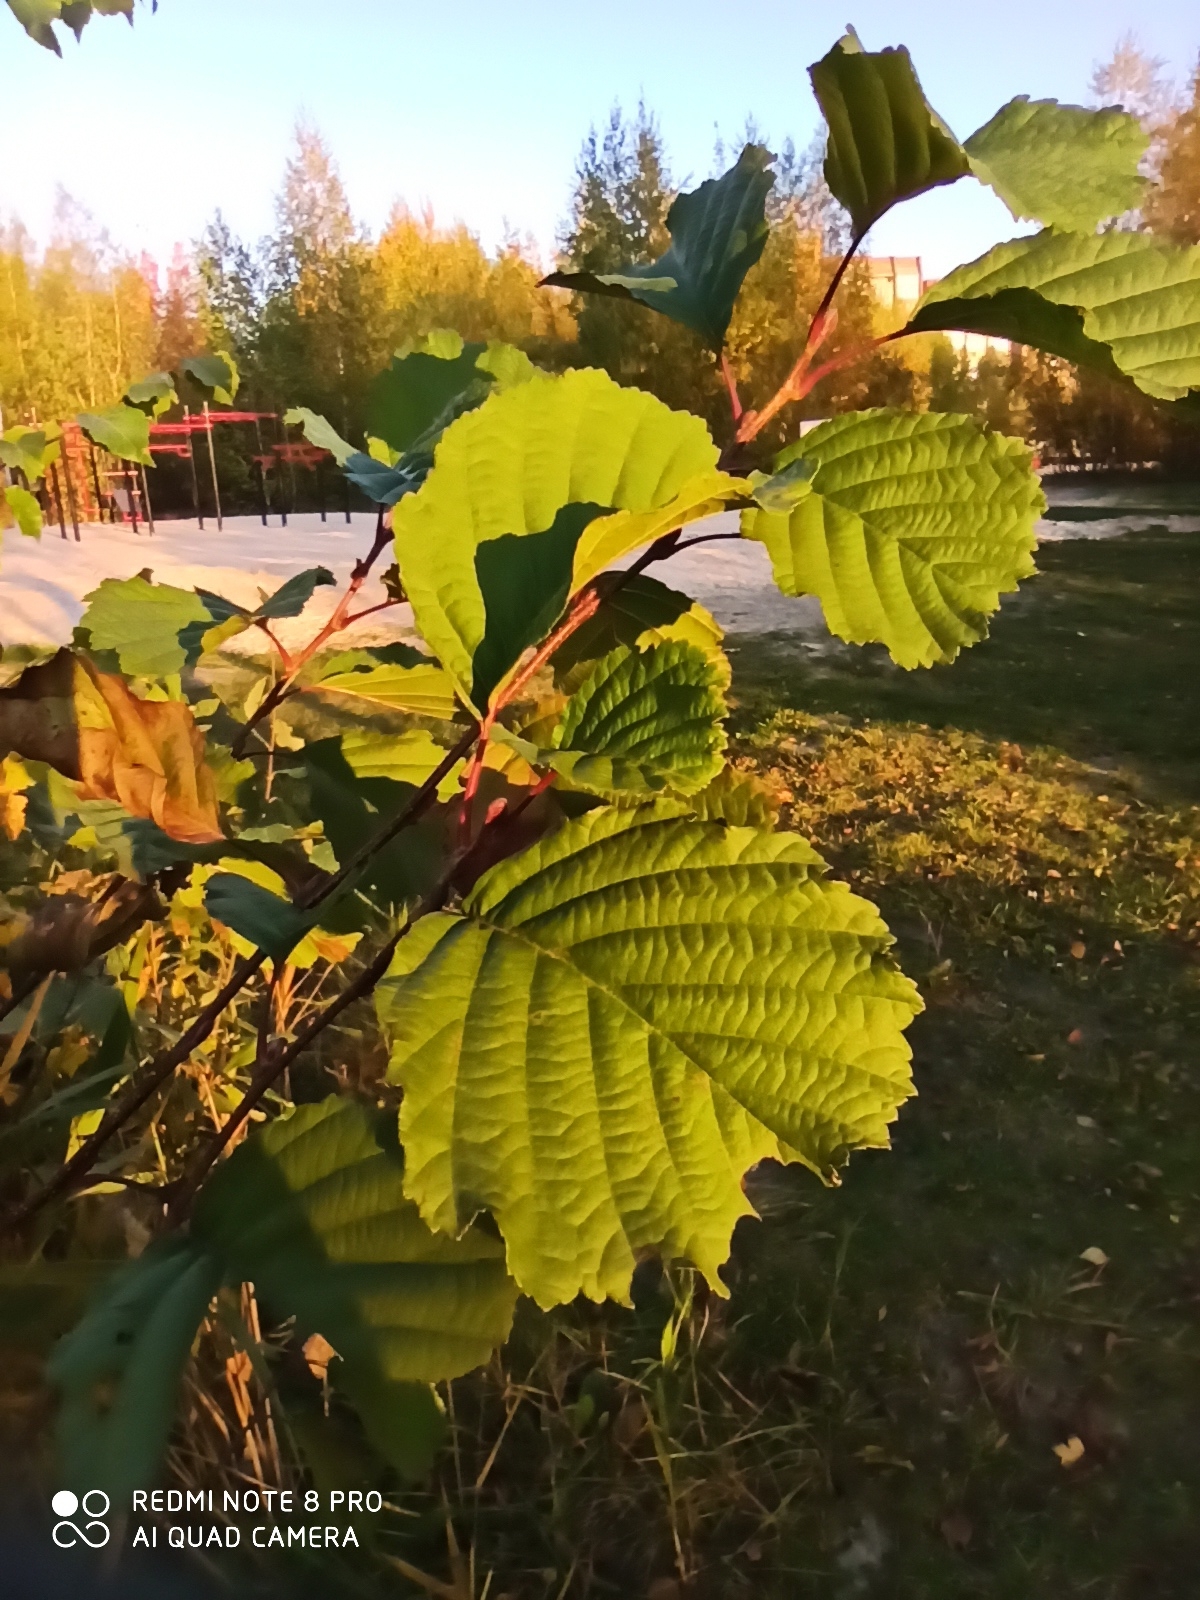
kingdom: Plantae
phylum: Tracheophyta
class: Magnoliopsida
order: Fagales
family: Betulaceae
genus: Alnus
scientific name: Alnus glutinosa
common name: Black alder
